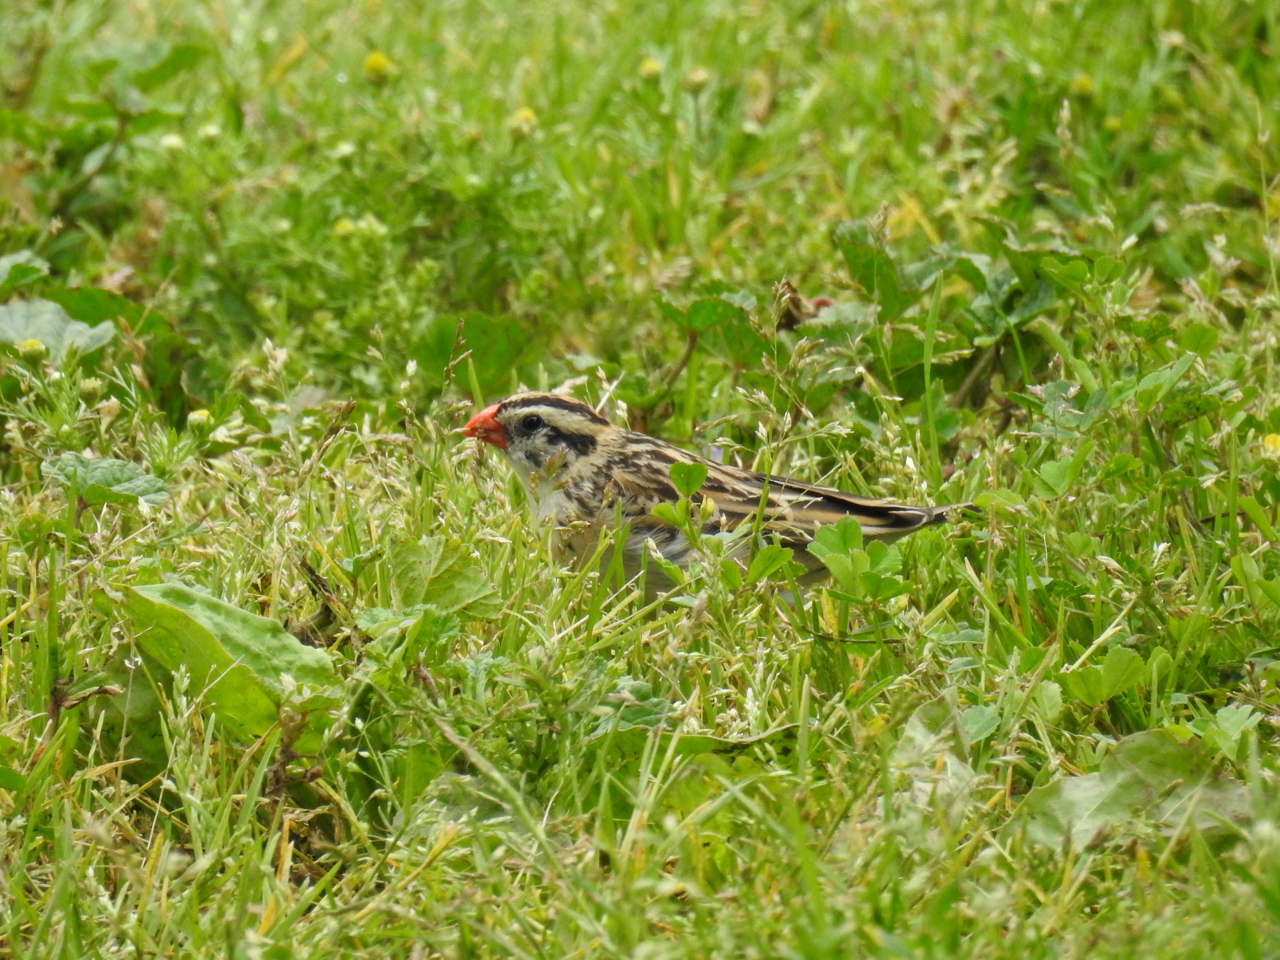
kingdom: Animalia
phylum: Chordata
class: Aves
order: Passeriformes
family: Viduidae
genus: Vidua
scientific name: Vidua macroura
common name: Pin-tailed whydah
